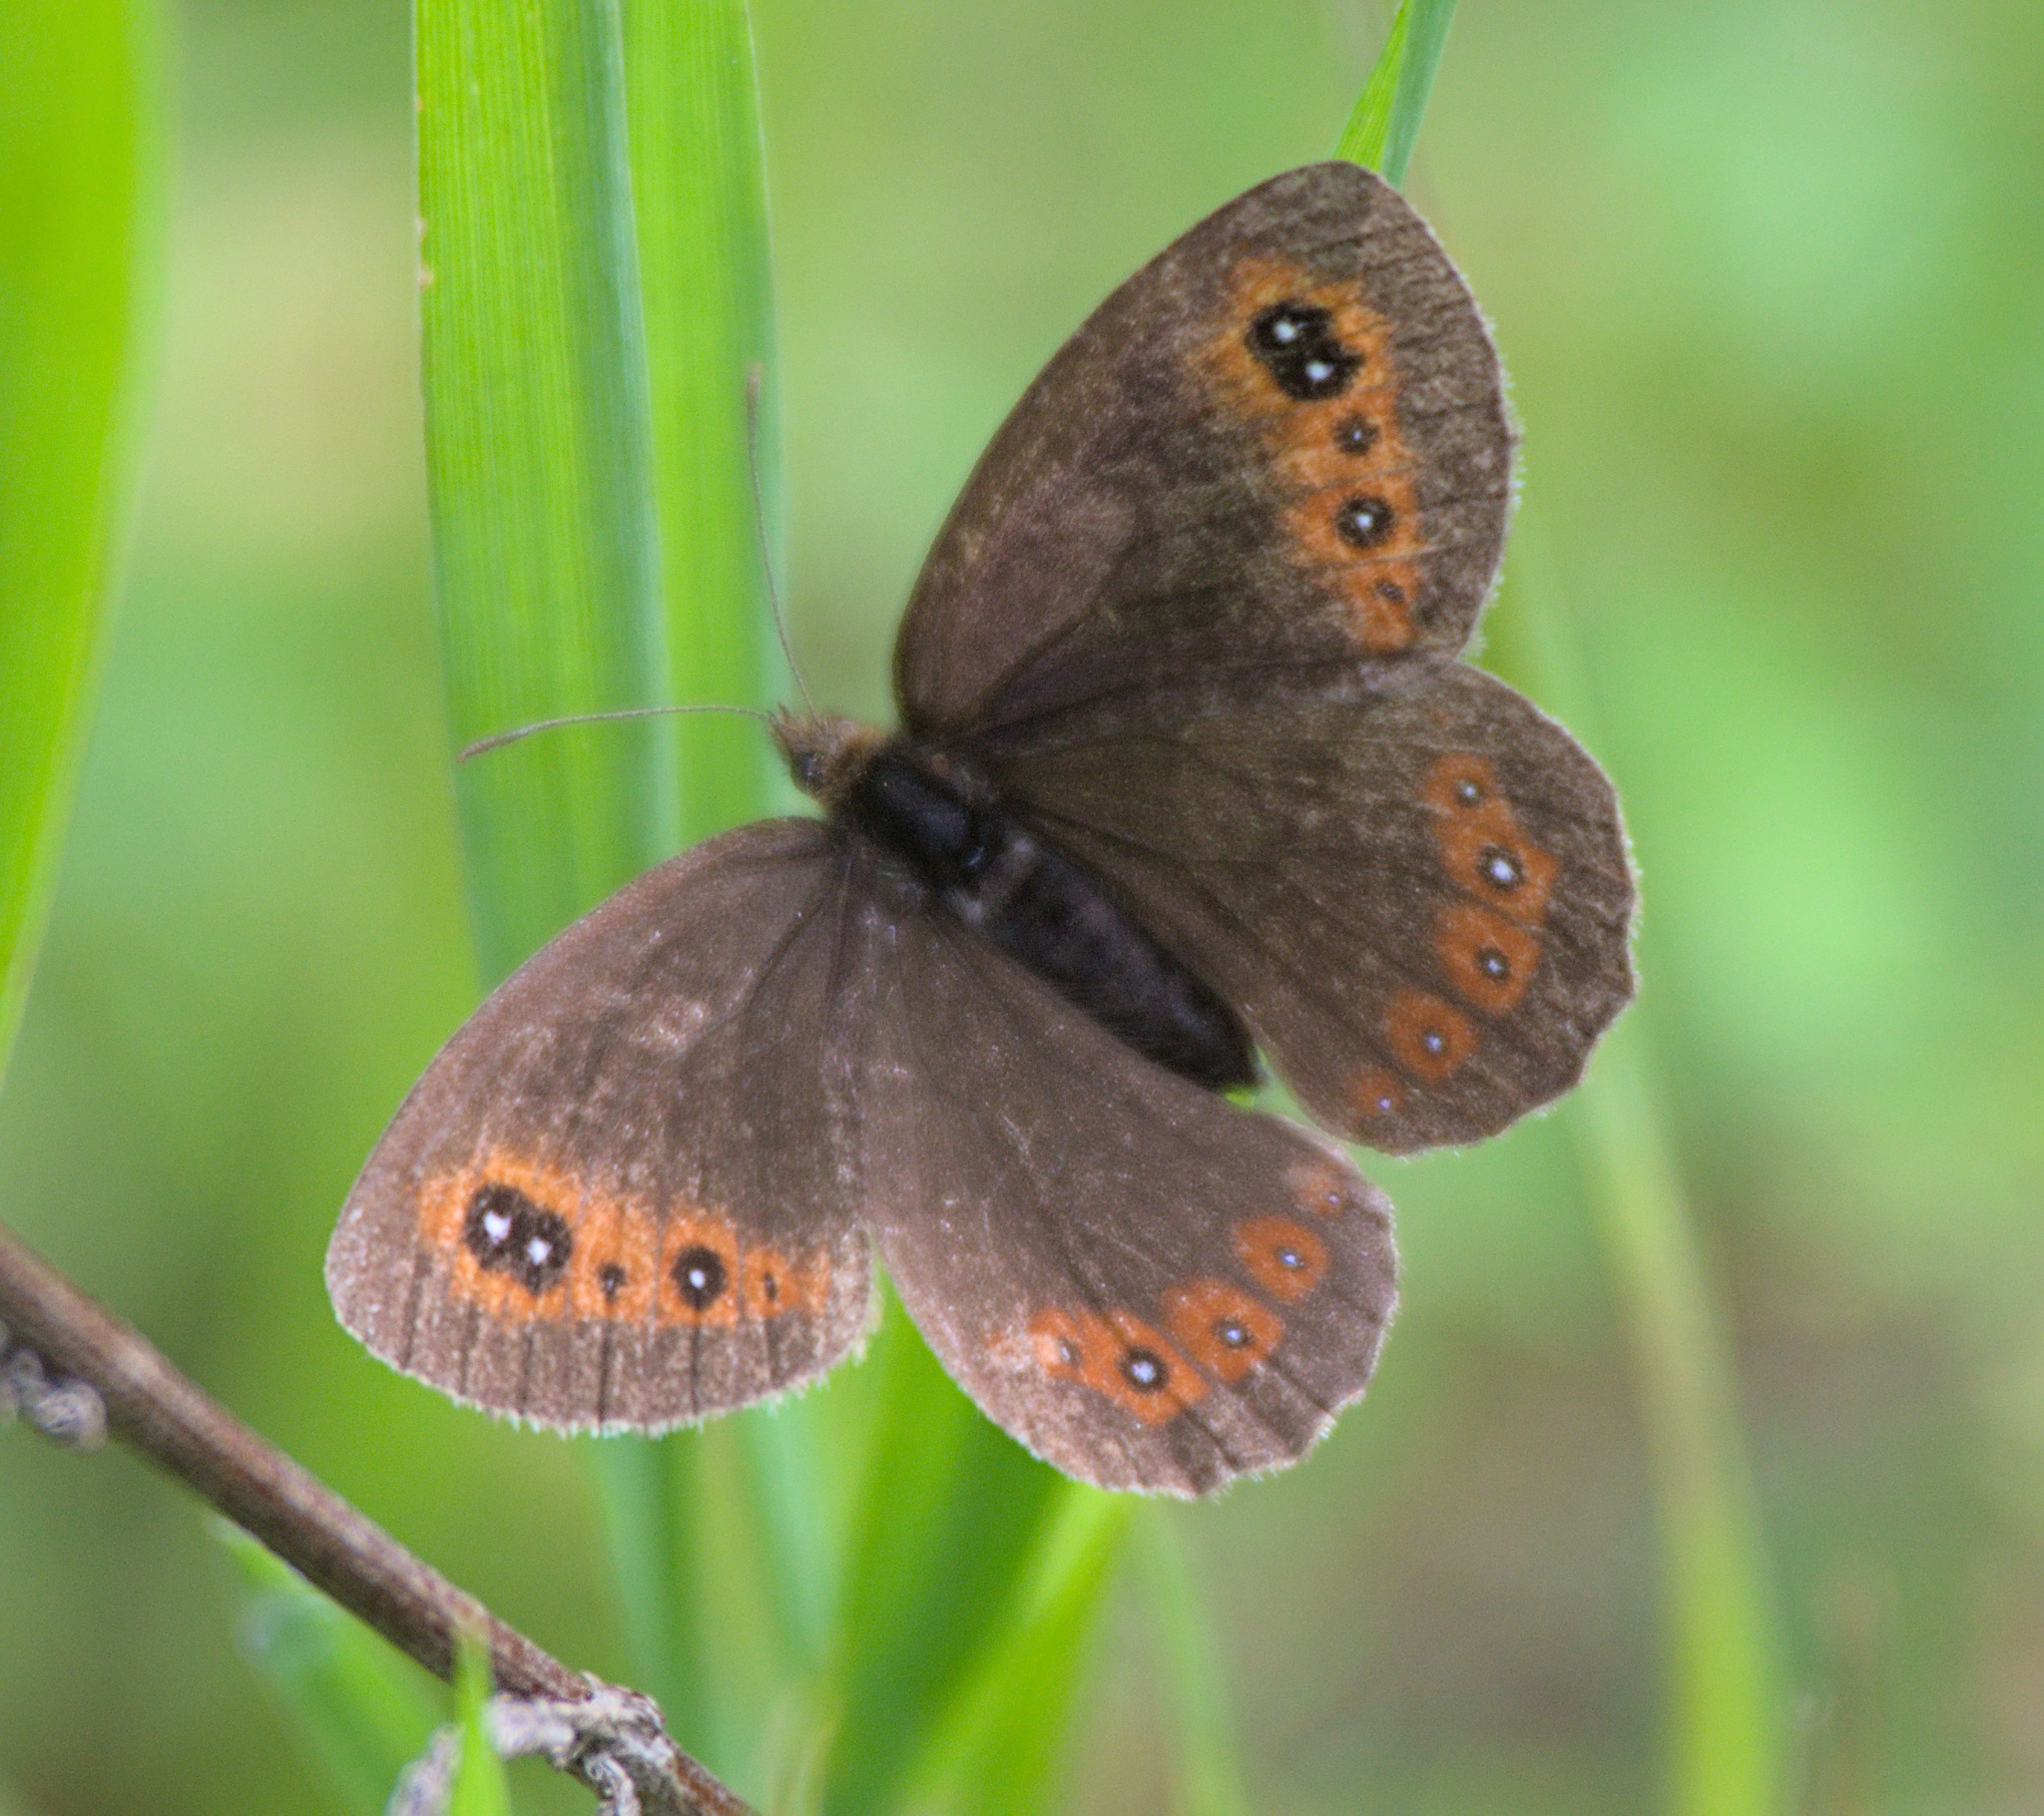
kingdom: Animalia
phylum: Arthropoda
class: Insecta
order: Lepidoptera
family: Nymphalidae
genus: Erebia
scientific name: Erebia aethiops
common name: Scotch argus
